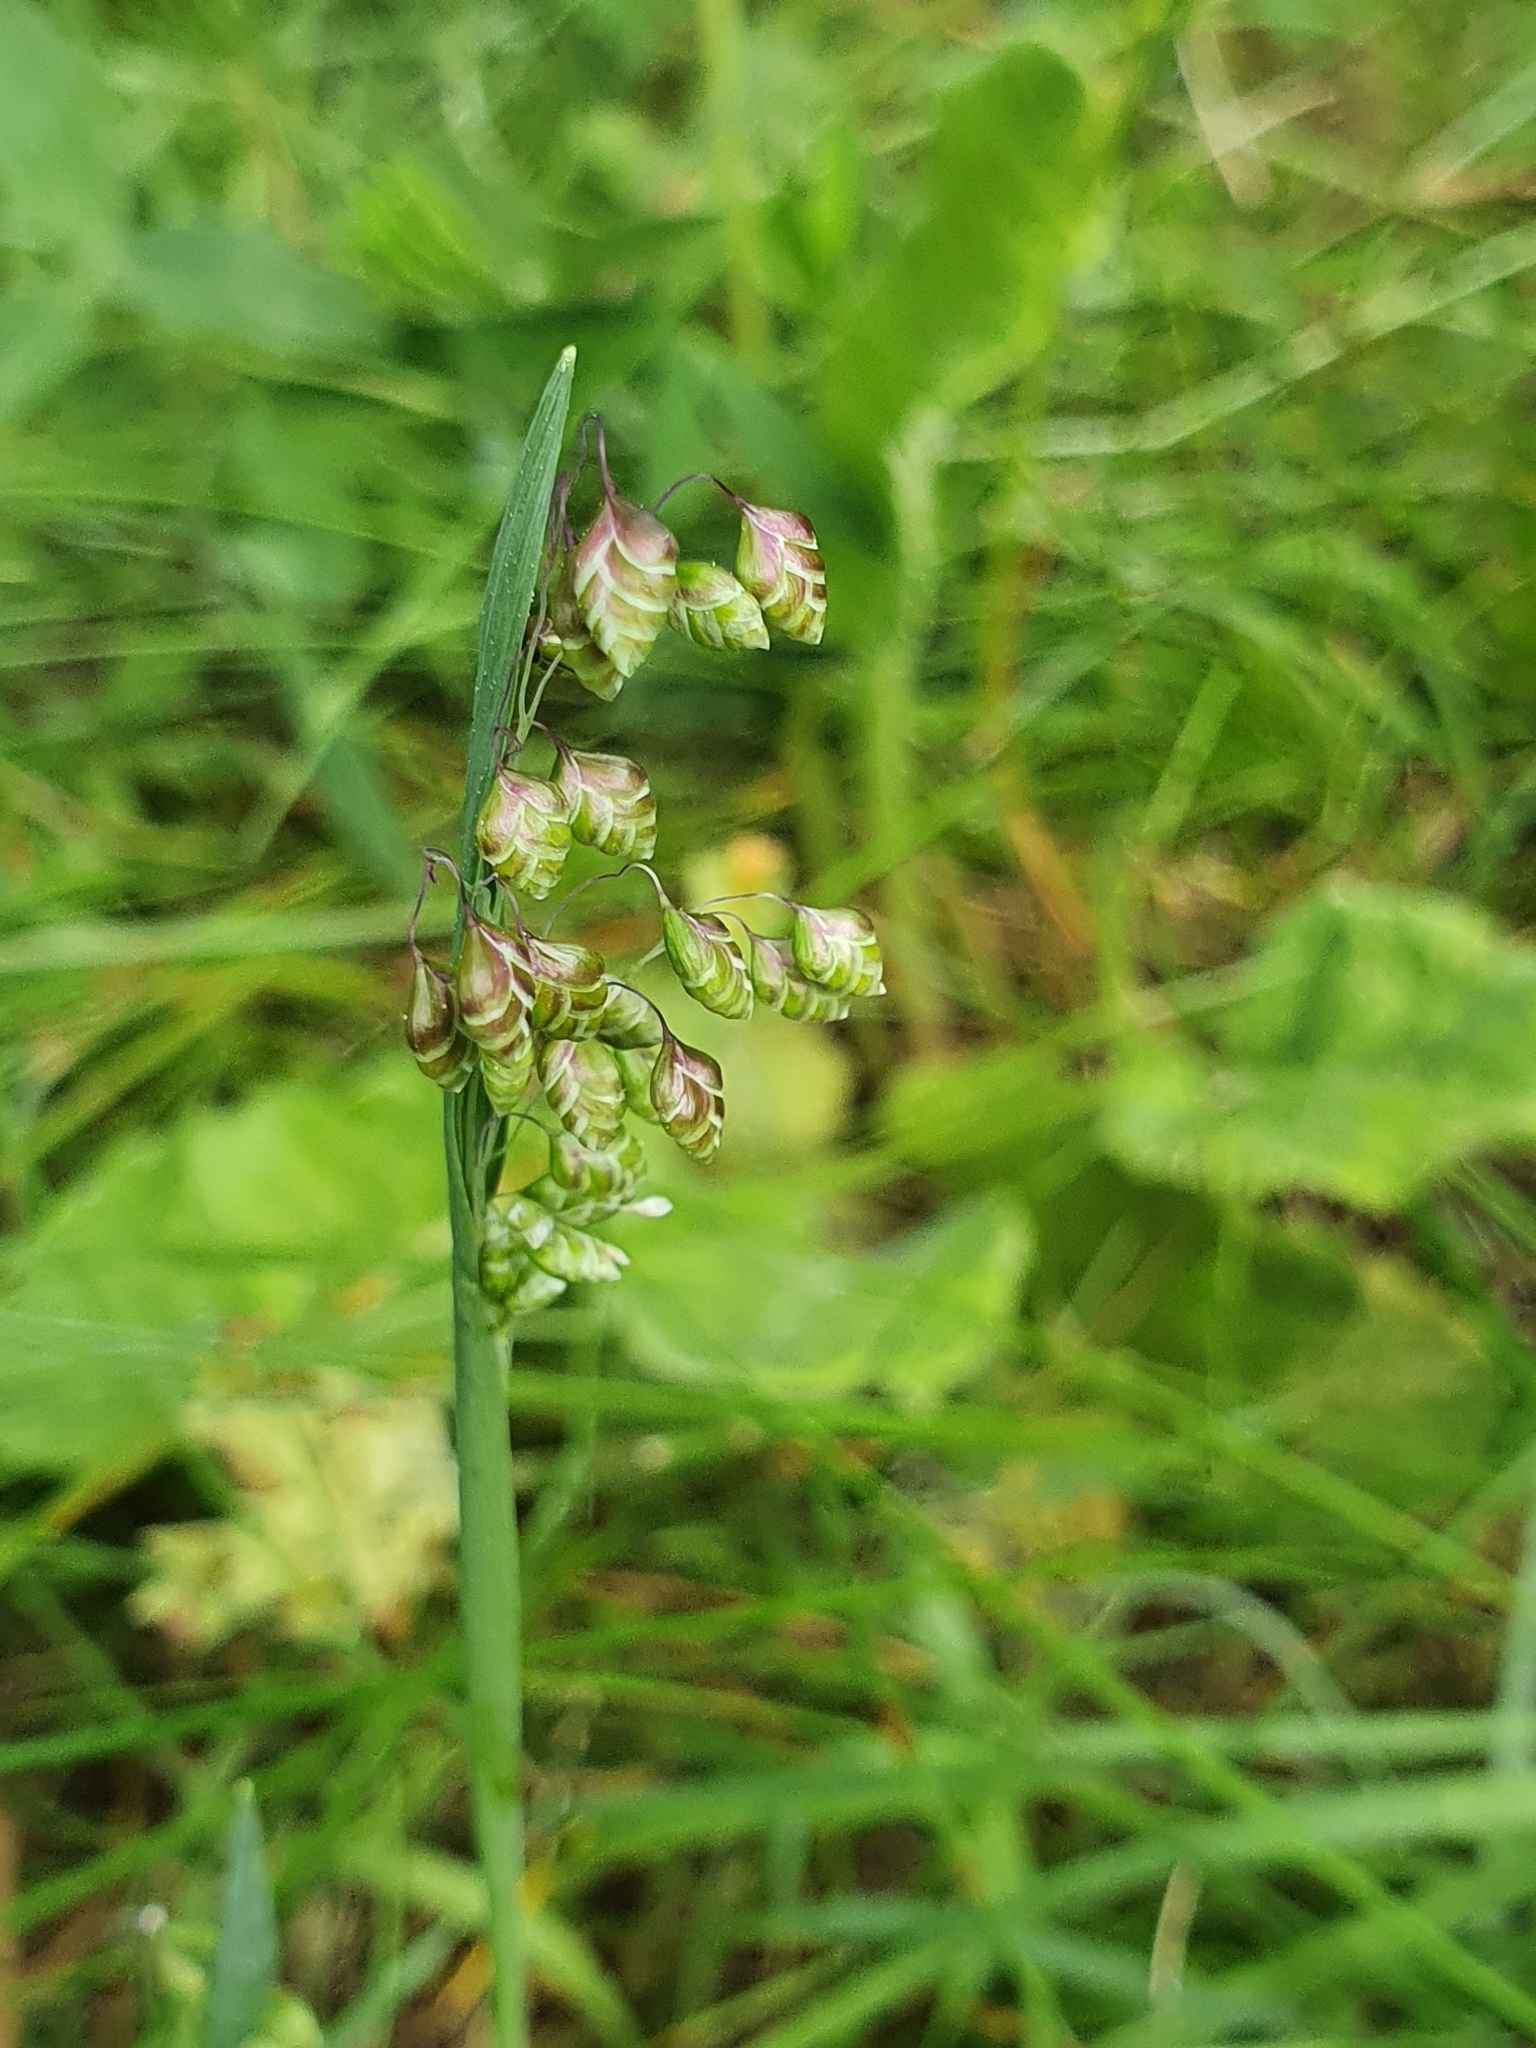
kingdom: Plantae
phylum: Tracheophyta
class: Liliopsida
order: Poales
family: Poaceae
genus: Briza
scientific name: Briza media
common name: Quaking grass
